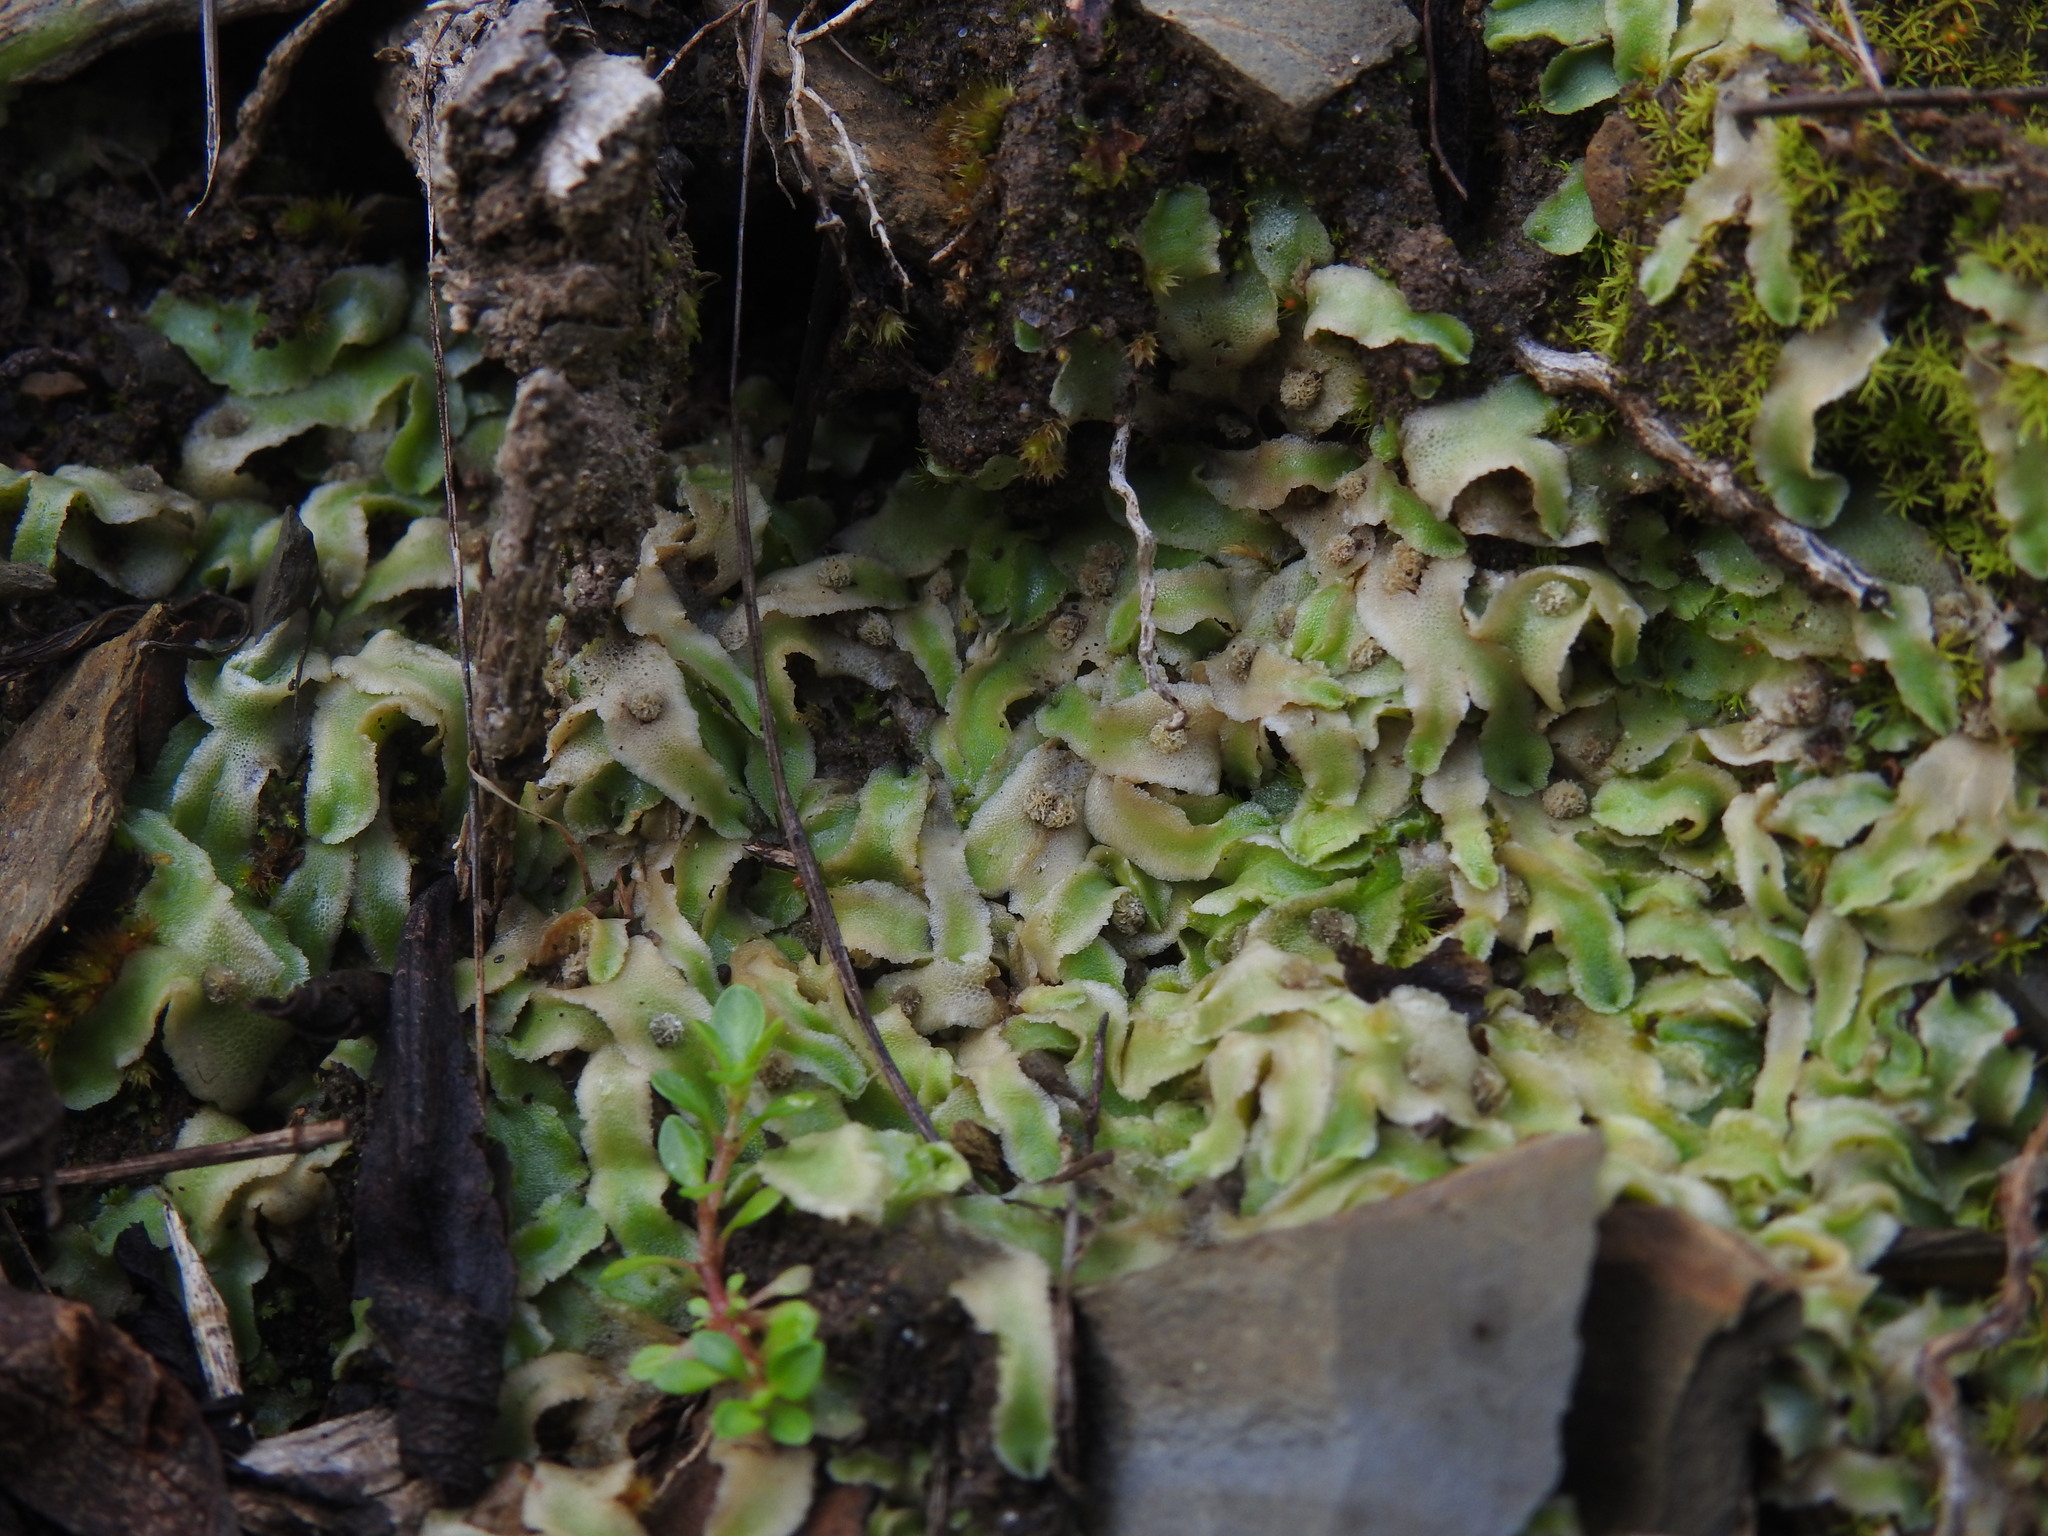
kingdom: Plantae
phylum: Marchantiophyta
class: Marchantiopsida
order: Marchantiales
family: Corsiniaceae
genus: Corsinia
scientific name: Corsinia coriandrina
